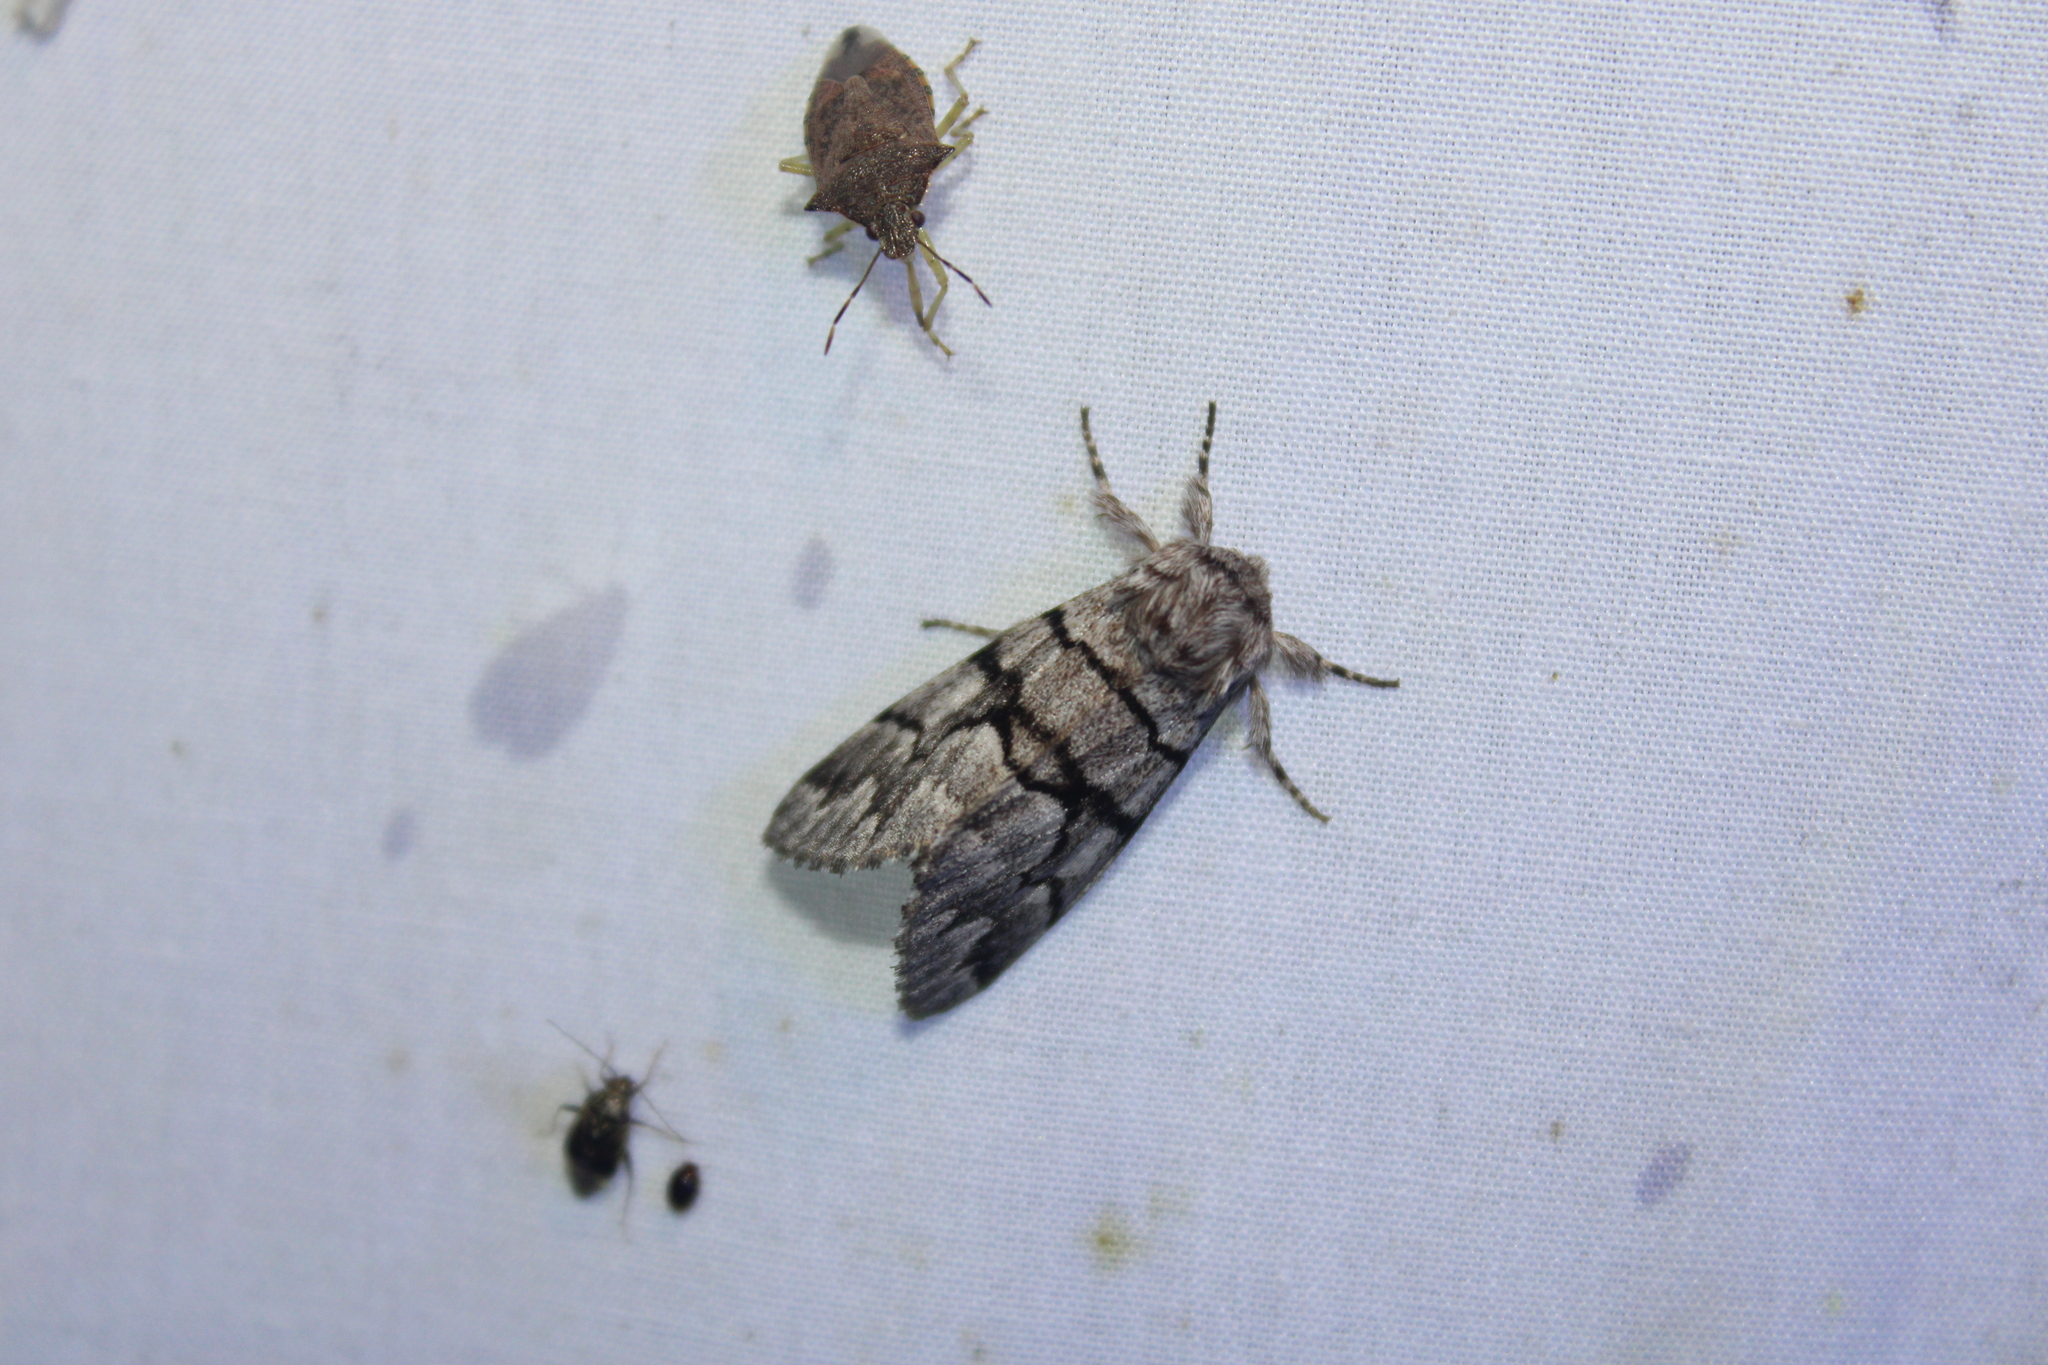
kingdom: Animalia
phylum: Arthropoda
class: Insecta
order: Lepidoptera
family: Noctuidae
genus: Panthea
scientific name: Panthea furcilla
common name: Eastern panthea moth
